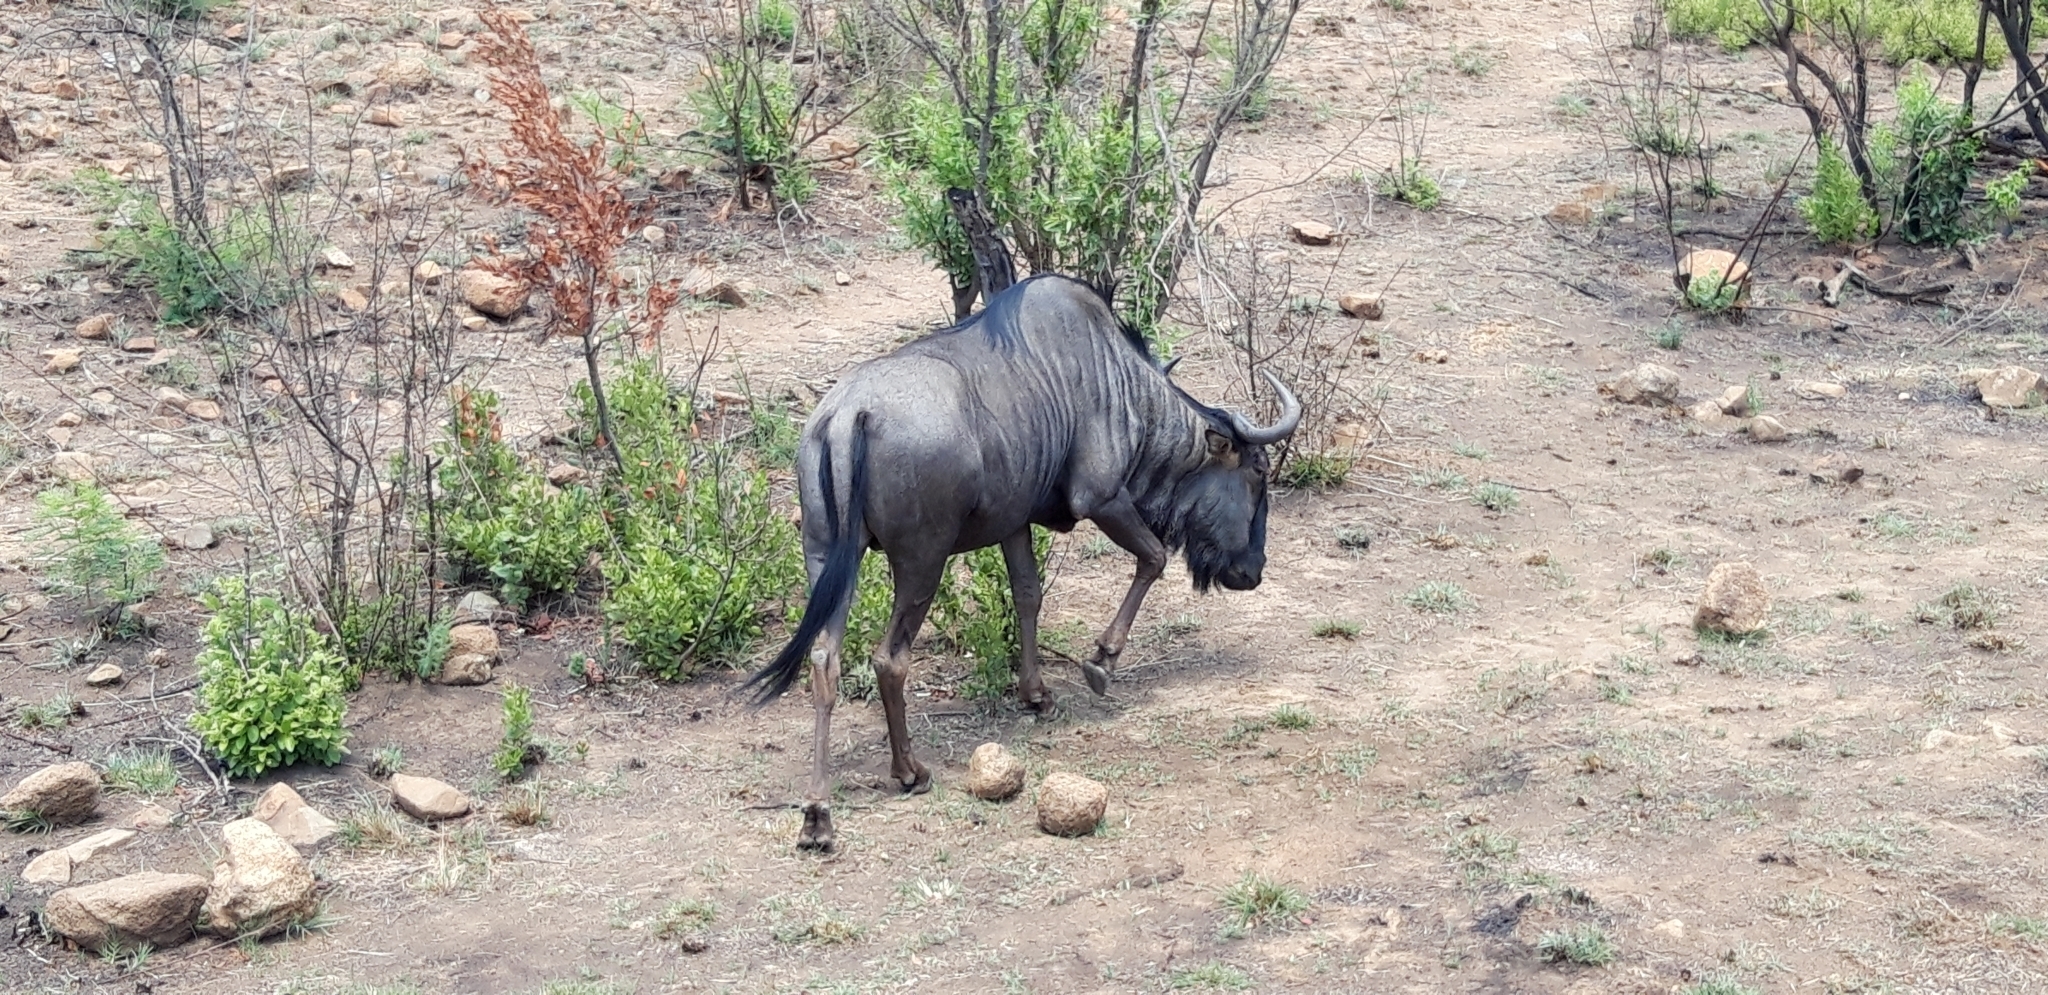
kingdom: Animalia
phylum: Chordata
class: Mammalia
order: Artiodactyla
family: Bovidae
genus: Connochaetes
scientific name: Connochaetes taurinus
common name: Blue wildebeest
